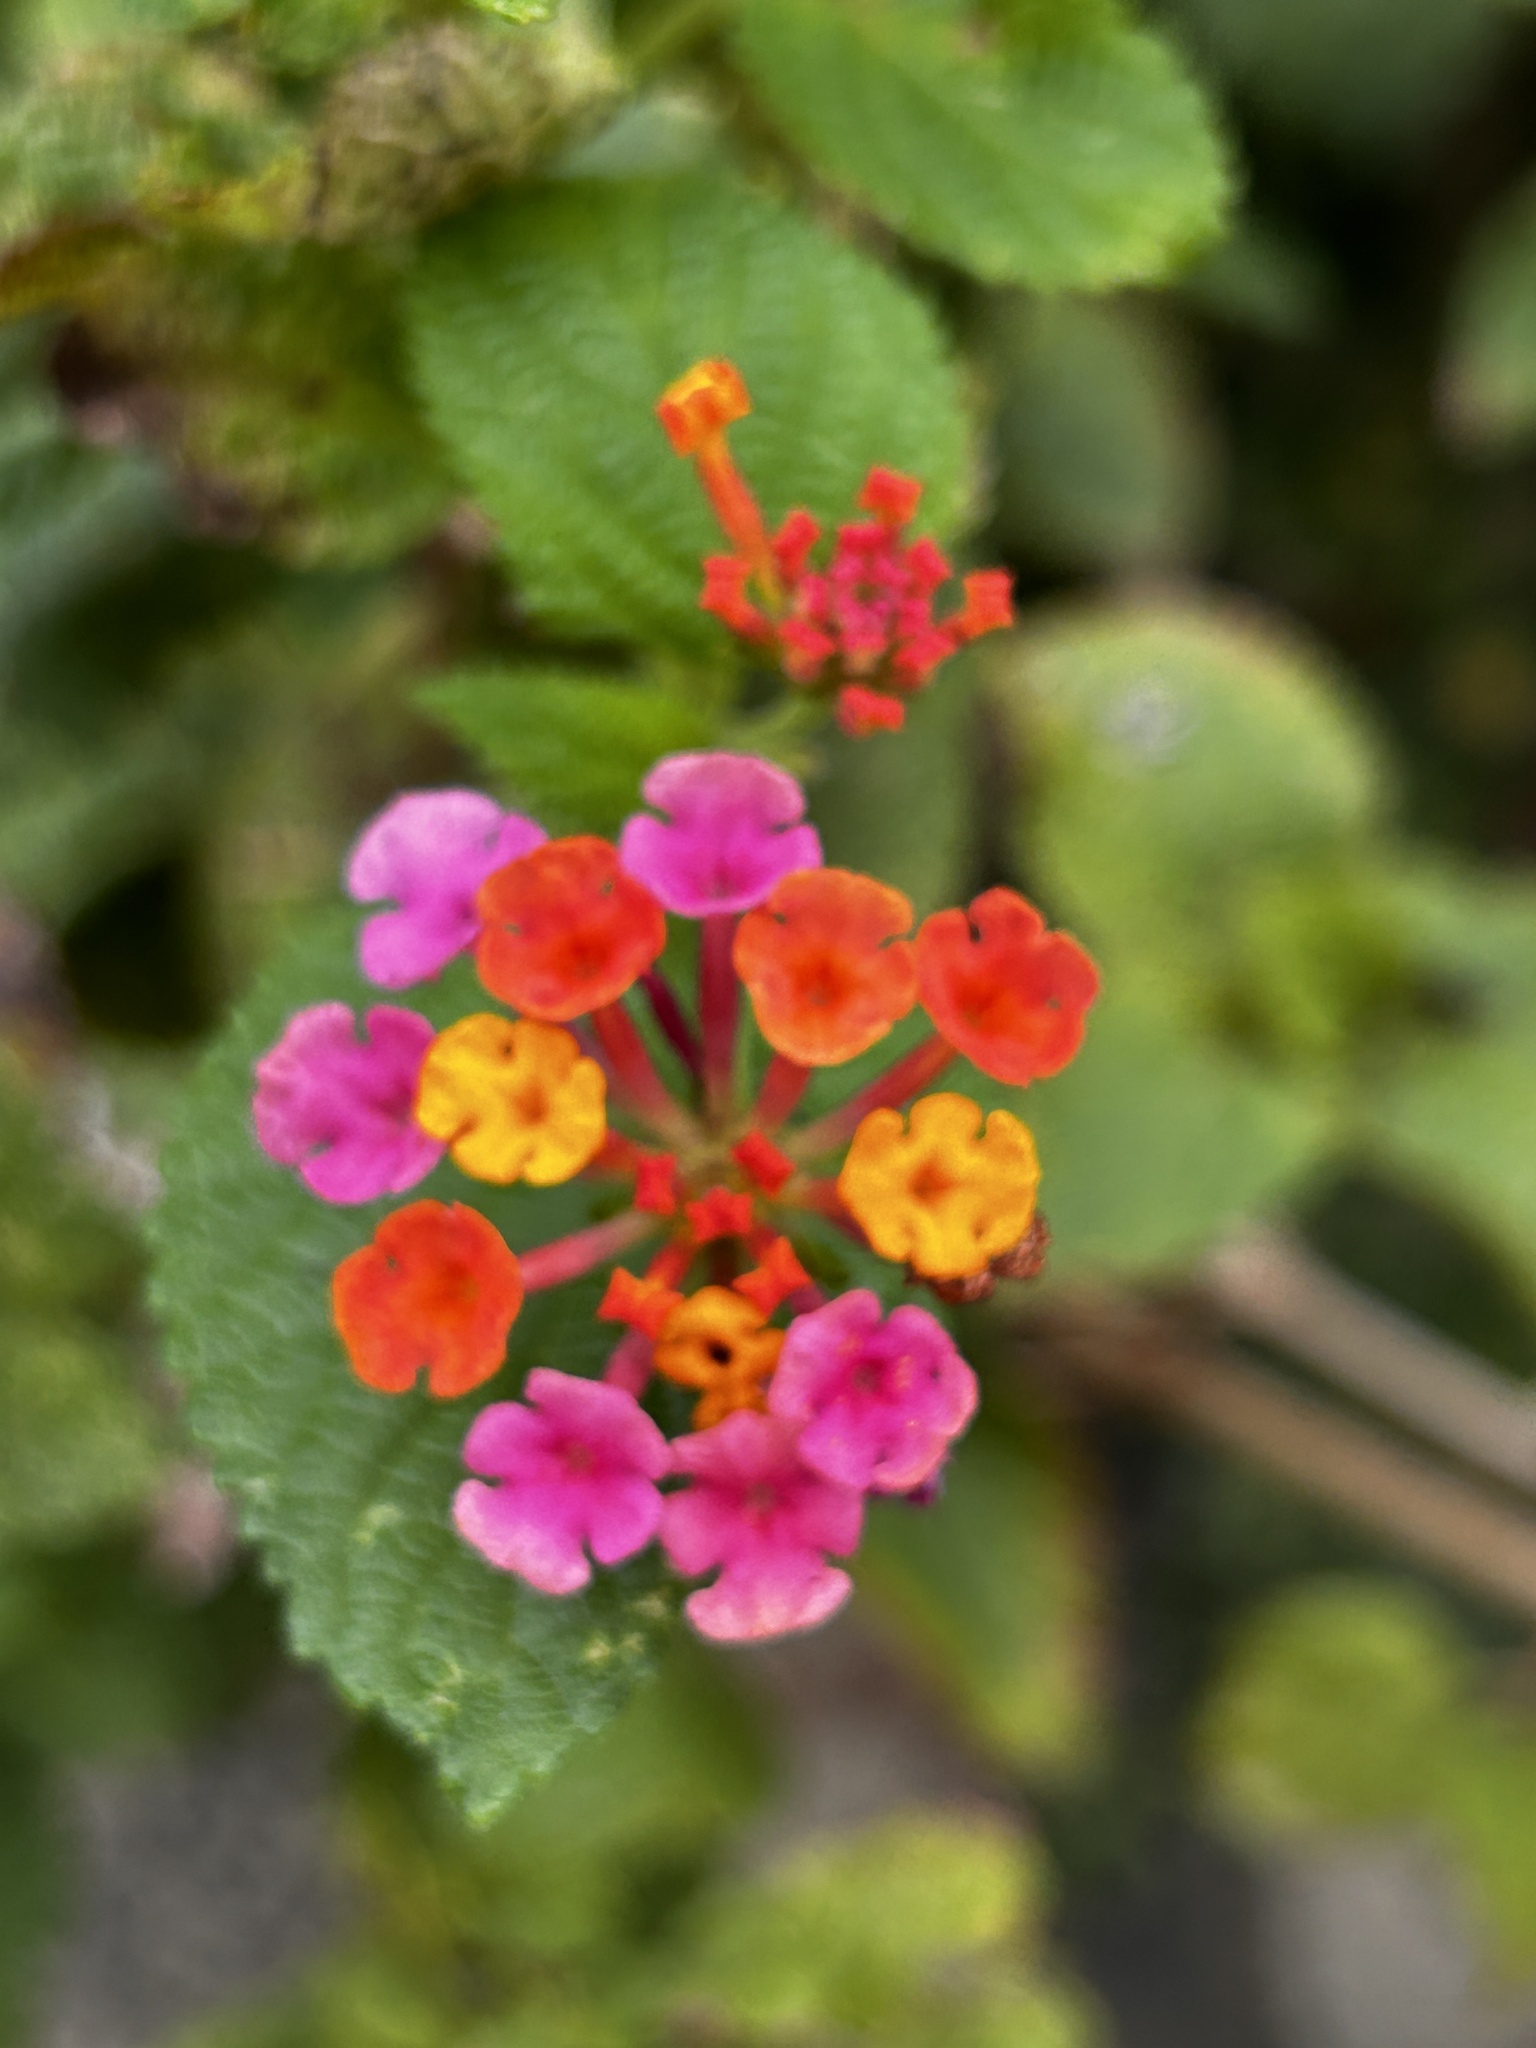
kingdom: Plantae
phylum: Tracheophyta
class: Magnoliopsida
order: Lamiales
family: Verbenaceae
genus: Lantana
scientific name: Lantana camara
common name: Lantana
